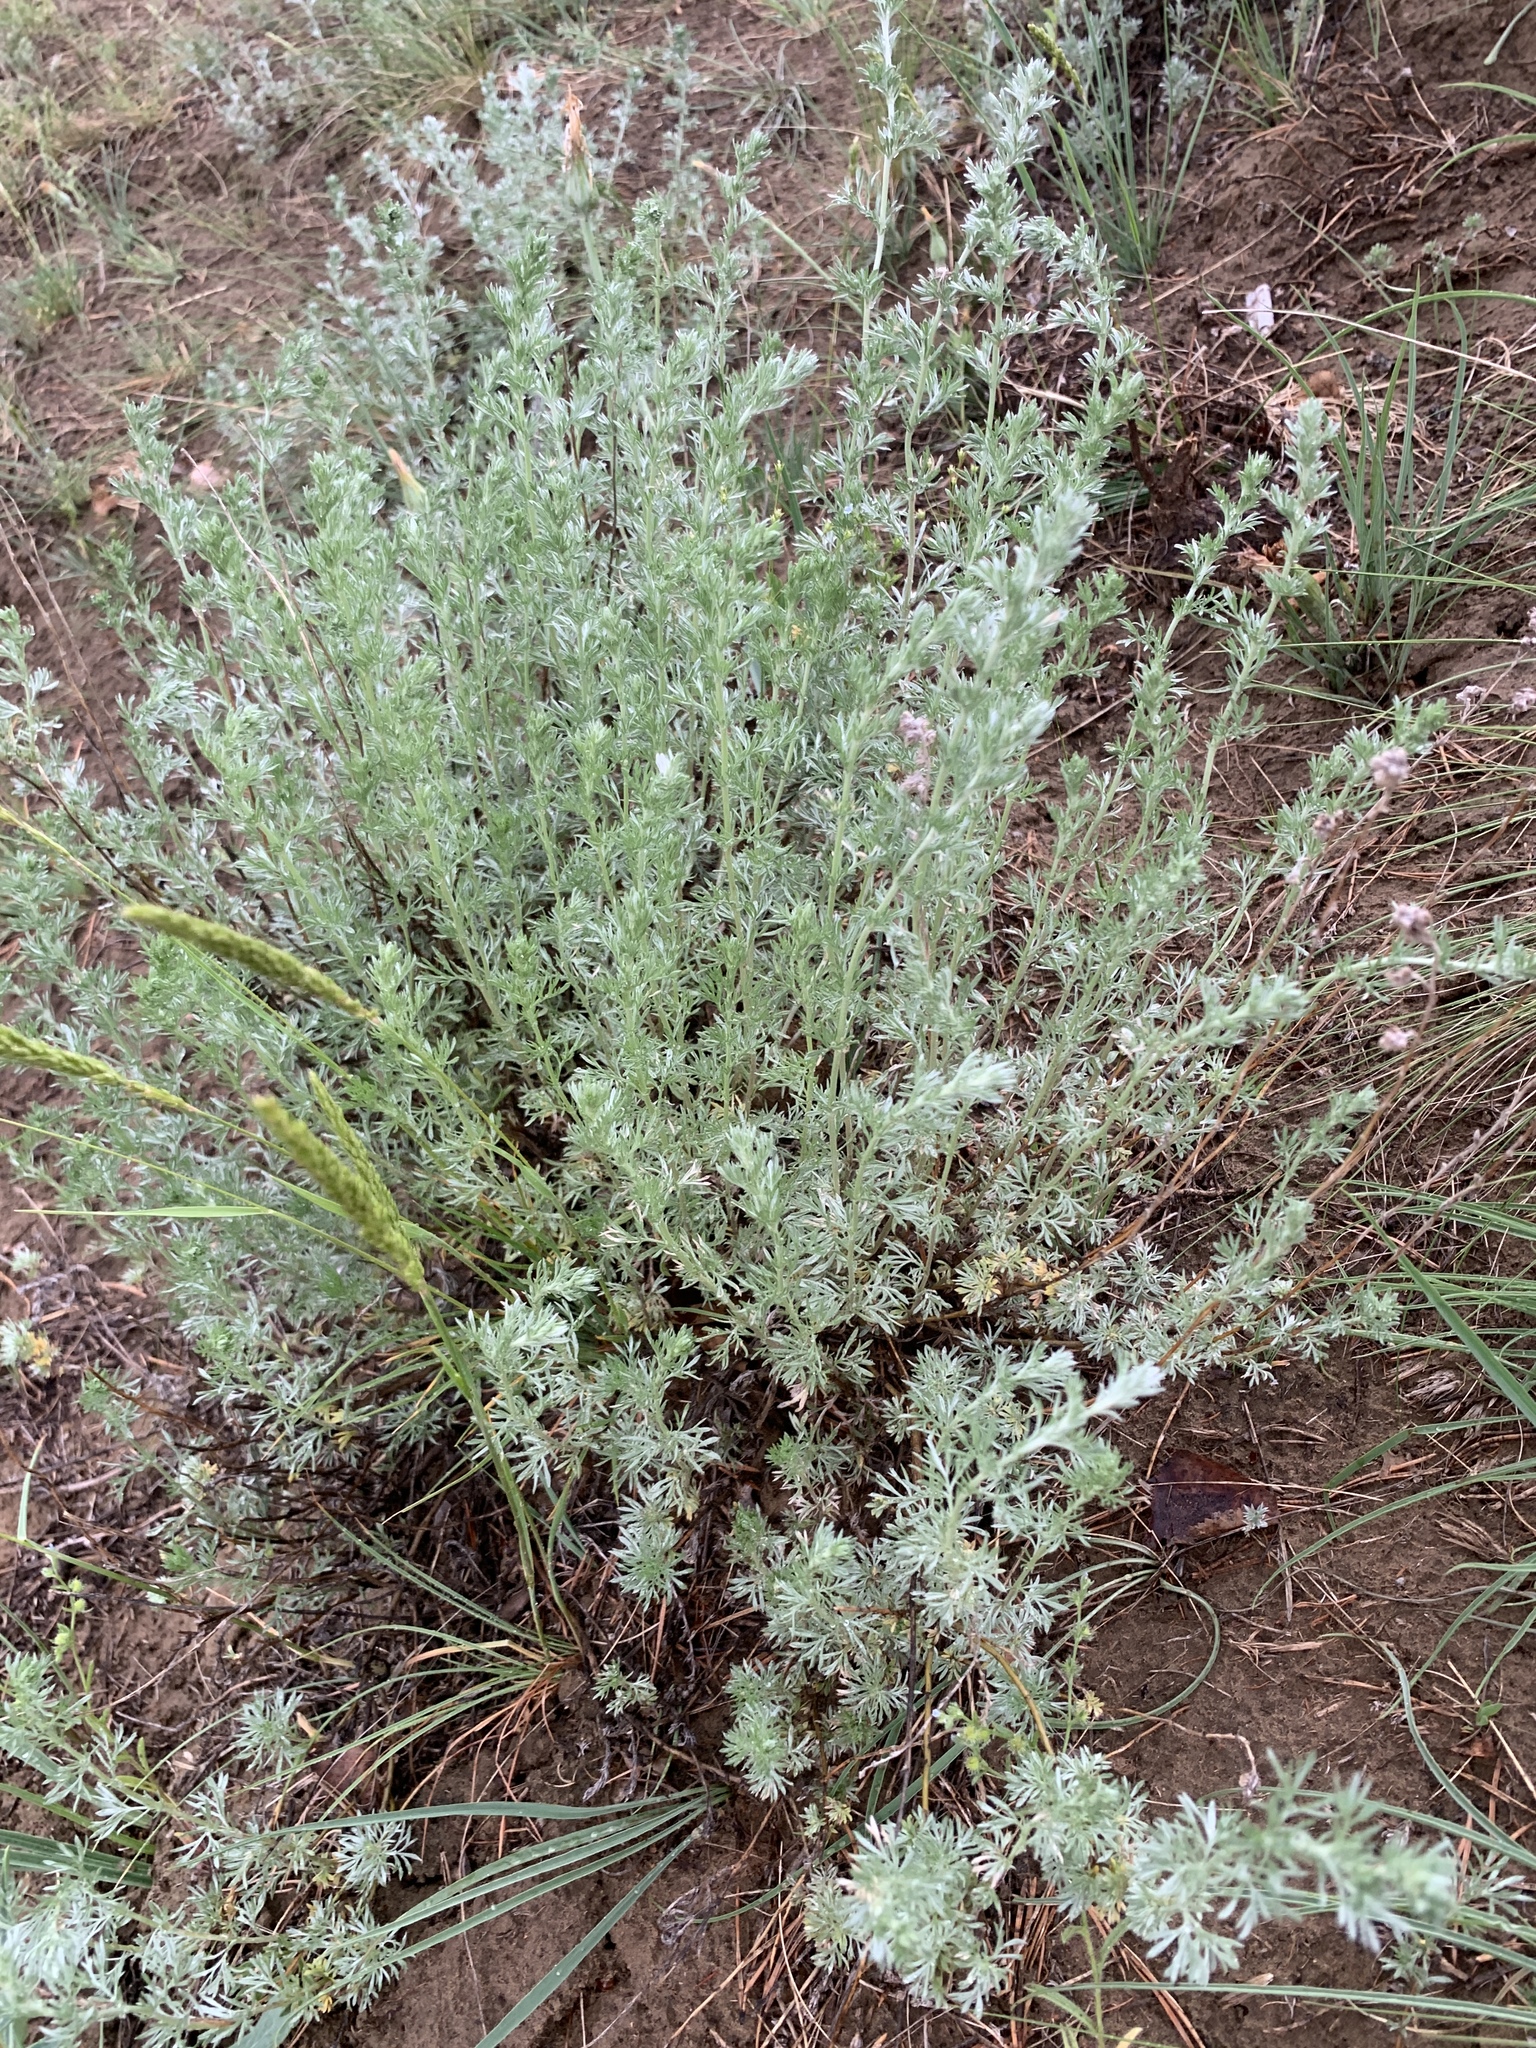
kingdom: Plantae
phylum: Tracheophyta
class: Magnoliopsida
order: Asterales
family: Asteraceae
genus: Artemisia
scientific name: Artemisia frigida
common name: Prairie sagewort
